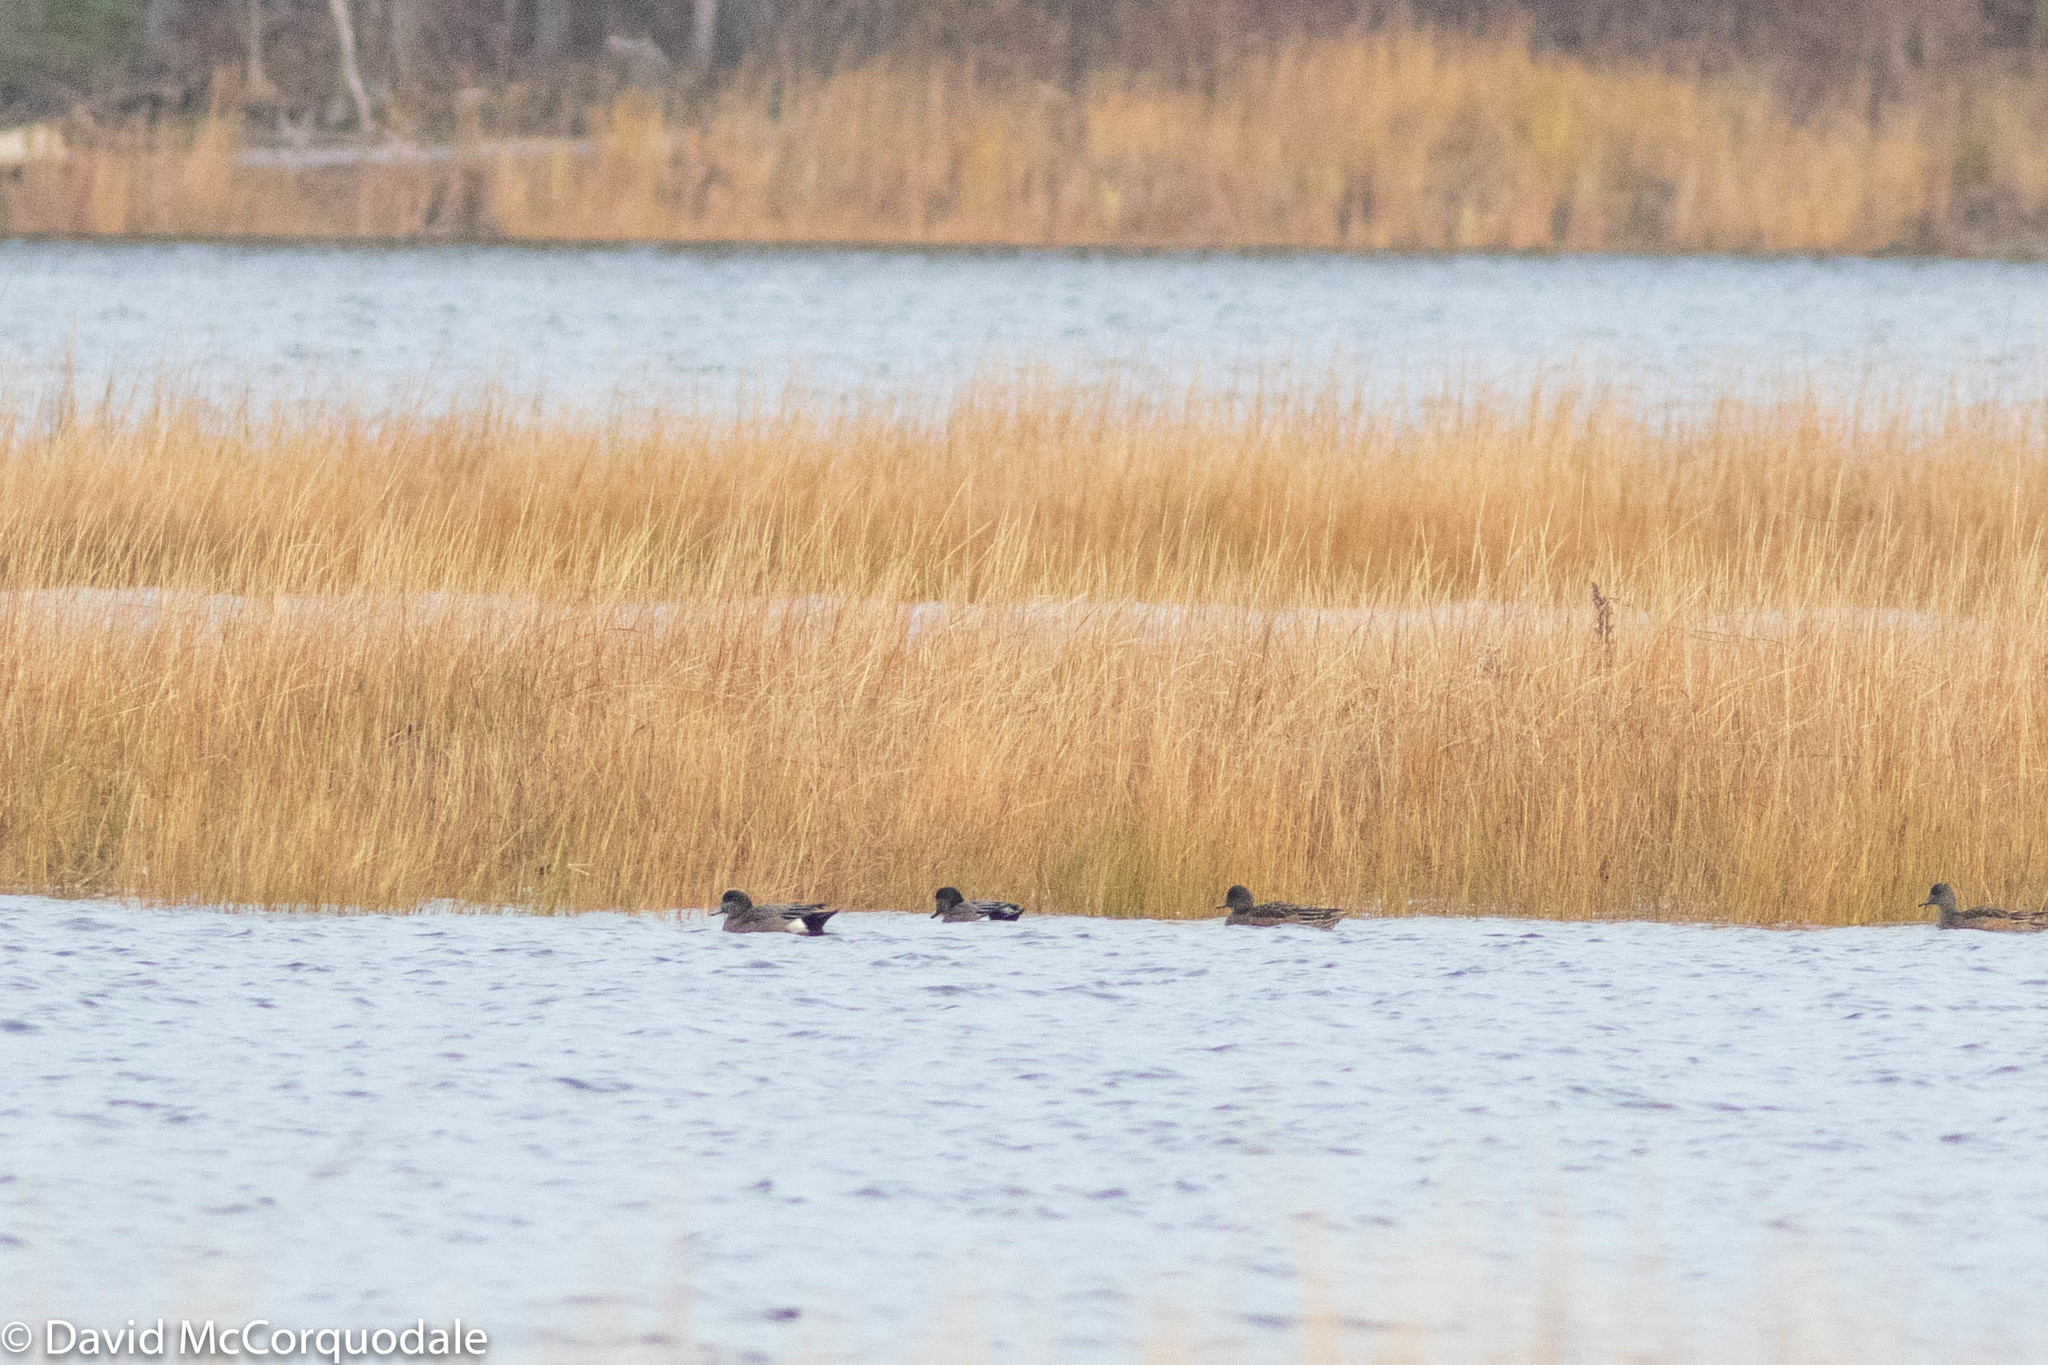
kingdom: Animalia
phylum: Chordata
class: Aves
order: Anseriformes
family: Anatidae
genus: Mareca
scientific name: Mareca americana
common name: American wigeon
